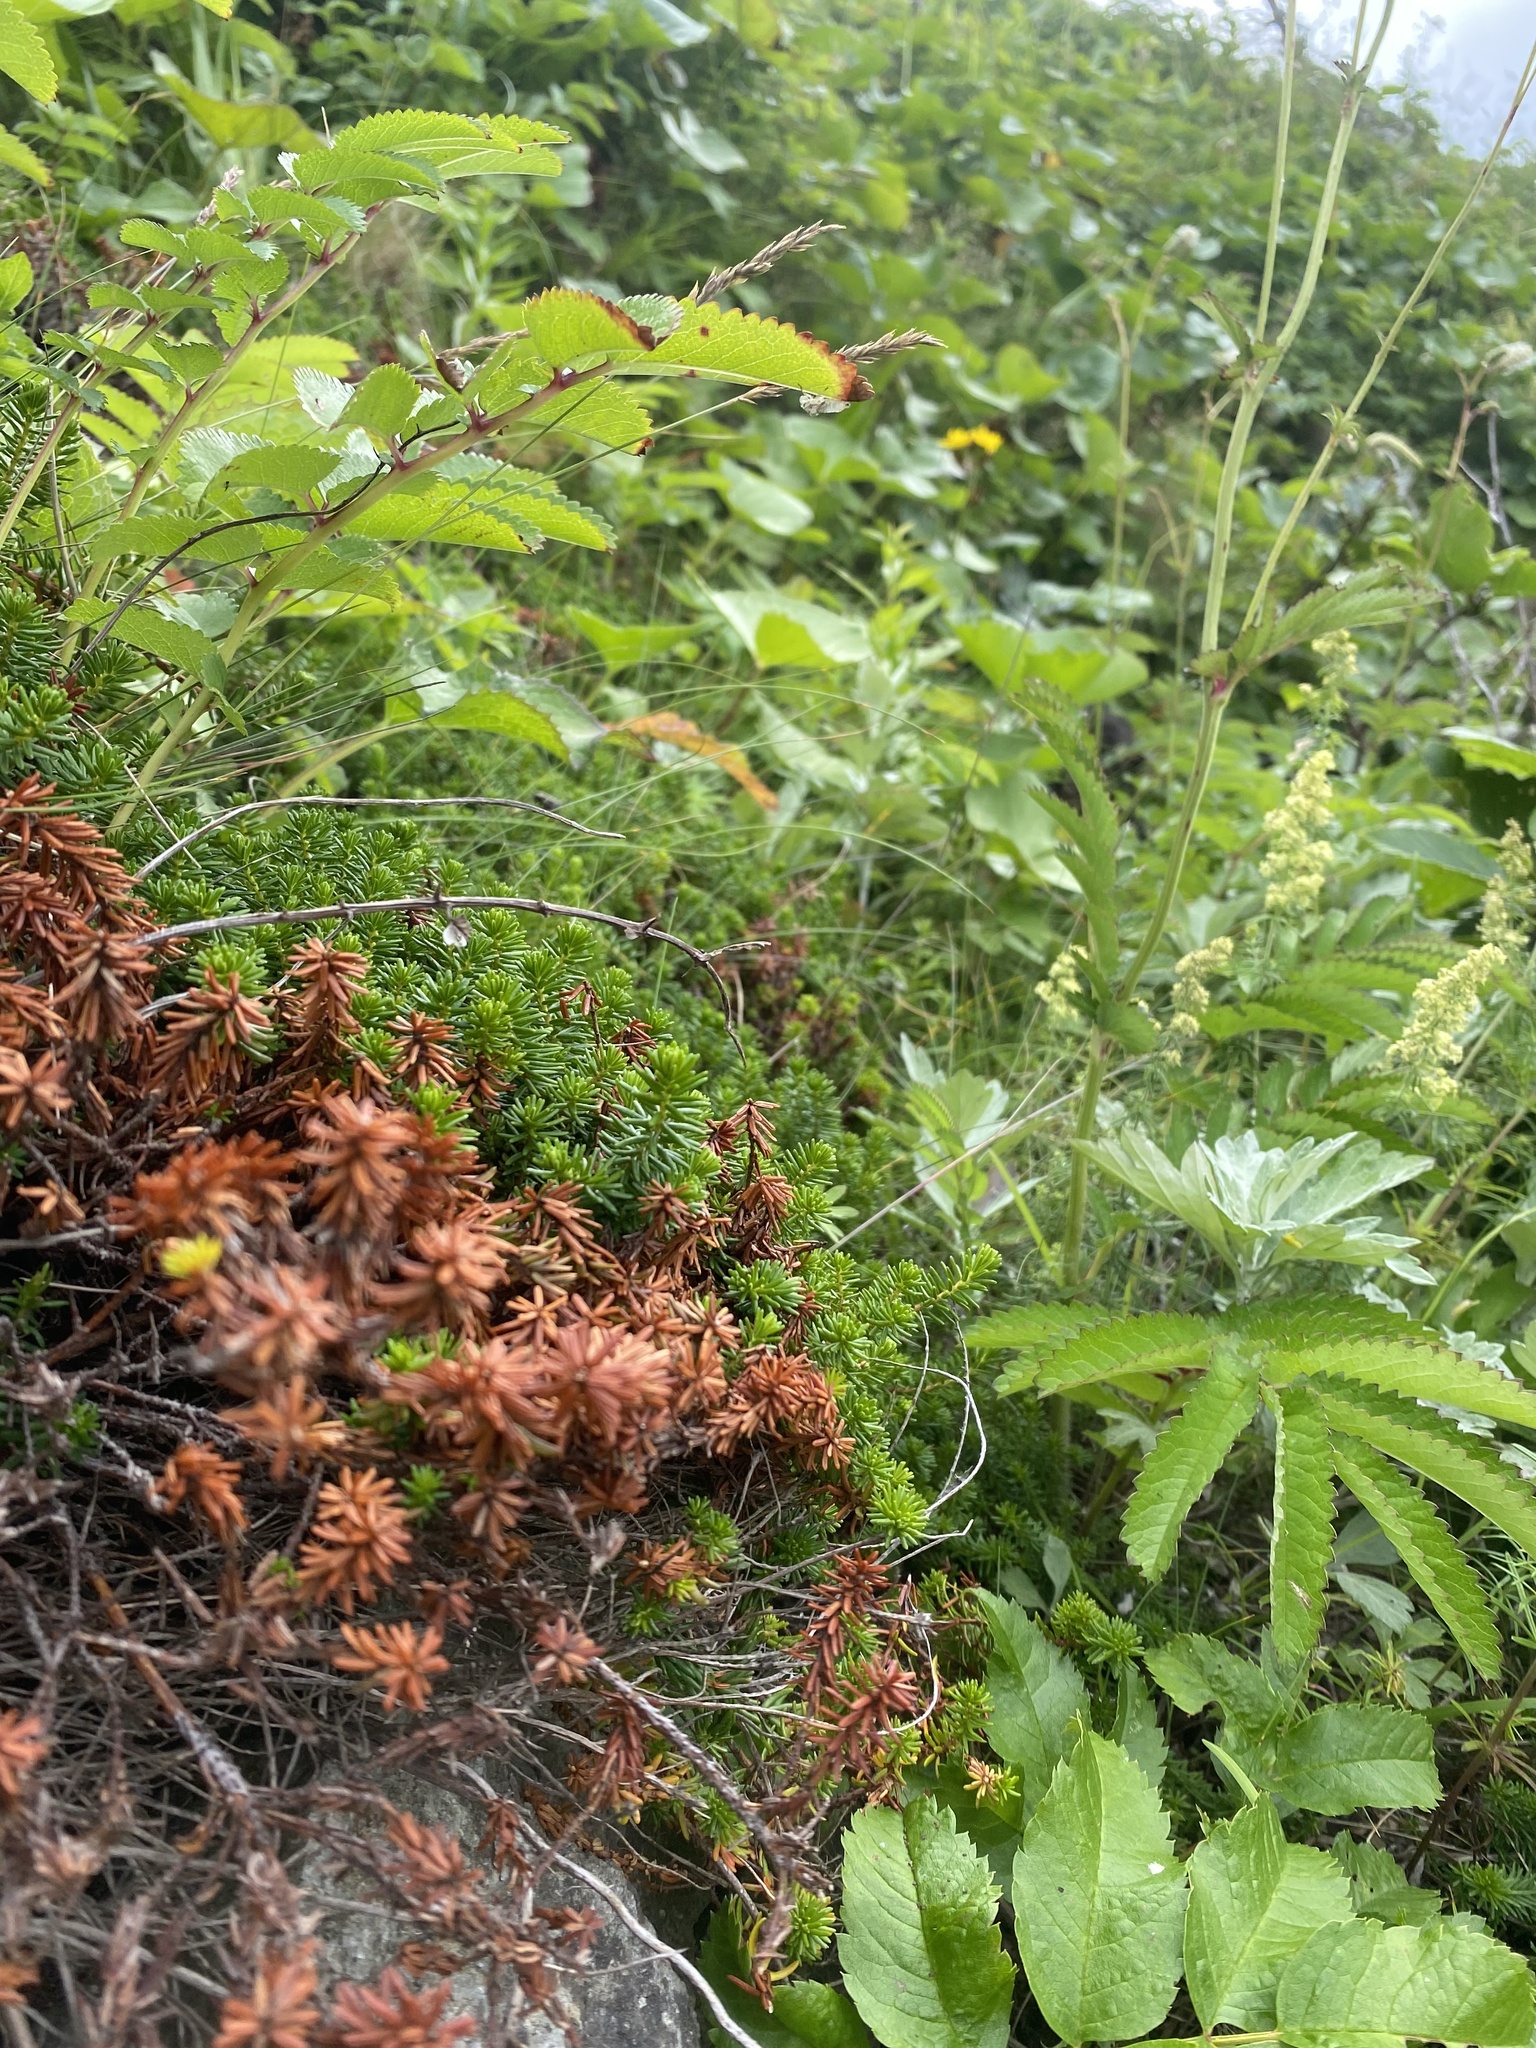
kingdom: Plantae
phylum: Tracheophyta
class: Magnoliopsida
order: Ericales
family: Ericaceae
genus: Empetrum
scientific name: Empetrum nigrum
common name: Black crowberry
